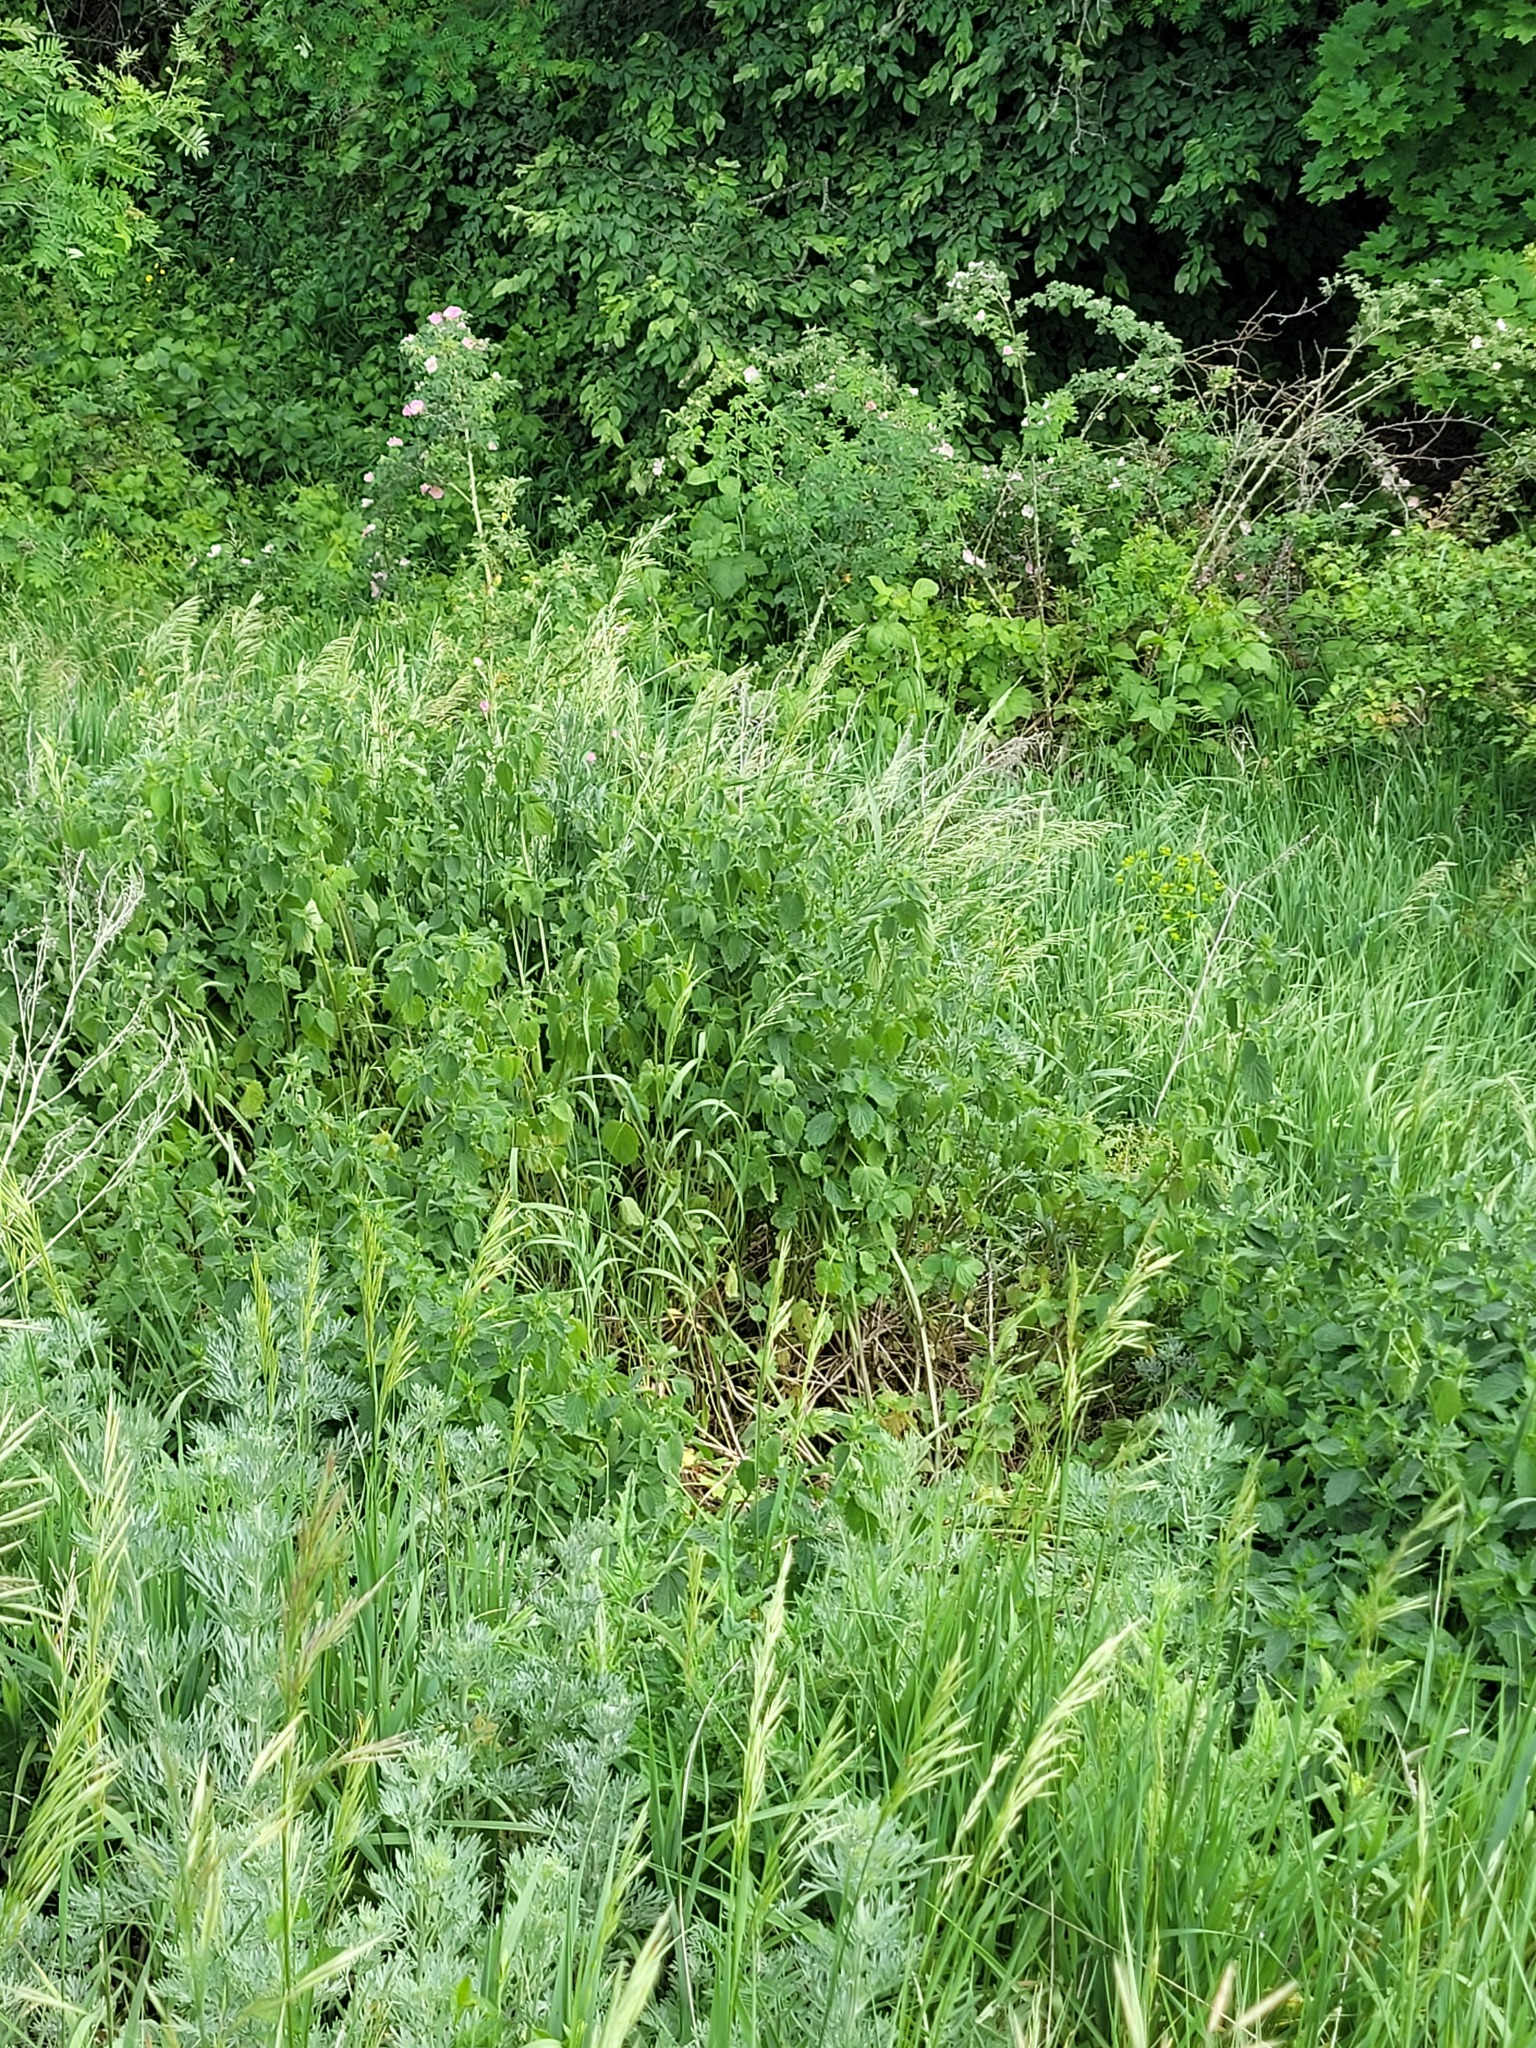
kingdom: Plantae
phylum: Tracheophyta
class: Magnoliopsida
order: Lamiales
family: Lamiaceae
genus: Ballota
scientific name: Ballota nigra
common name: Black horehound
